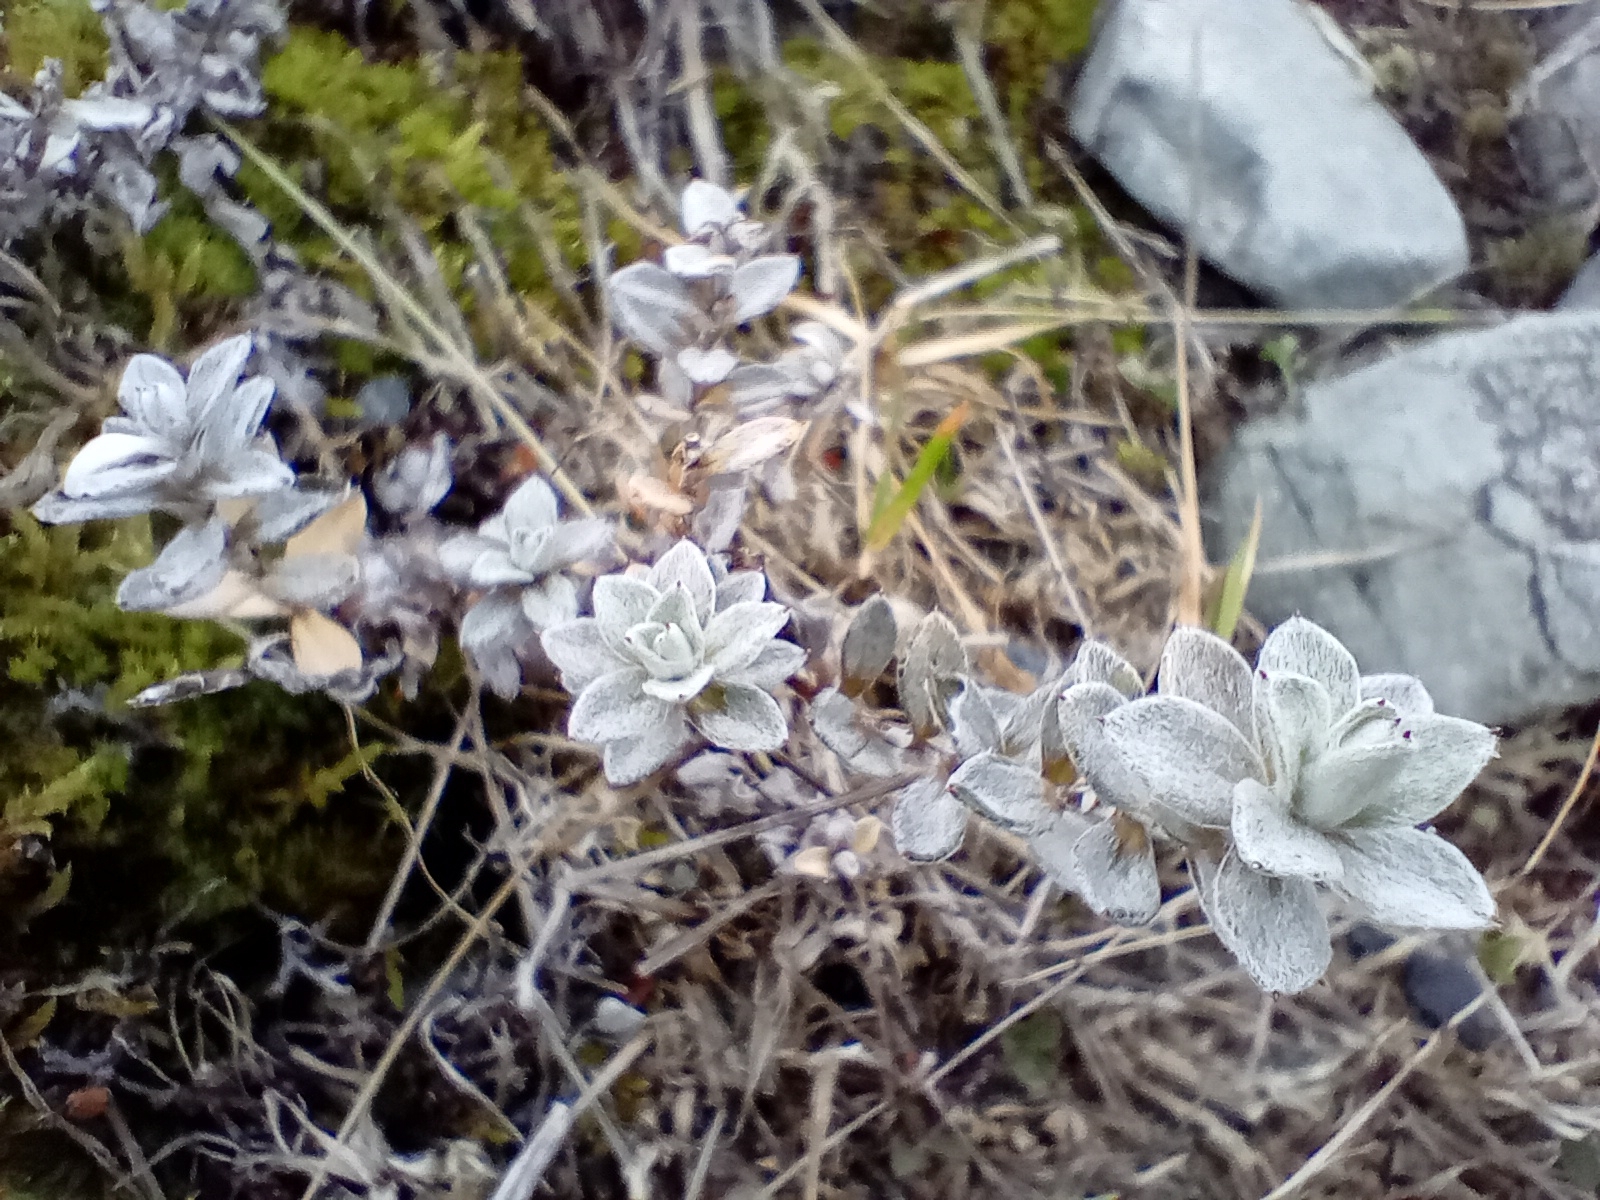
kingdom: Plantae
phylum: Tracheophyta
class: Magnoliopsida
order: Asterales
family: Asteraceae
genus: Anaphalioides
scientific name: Anaphalioides bellidioides
